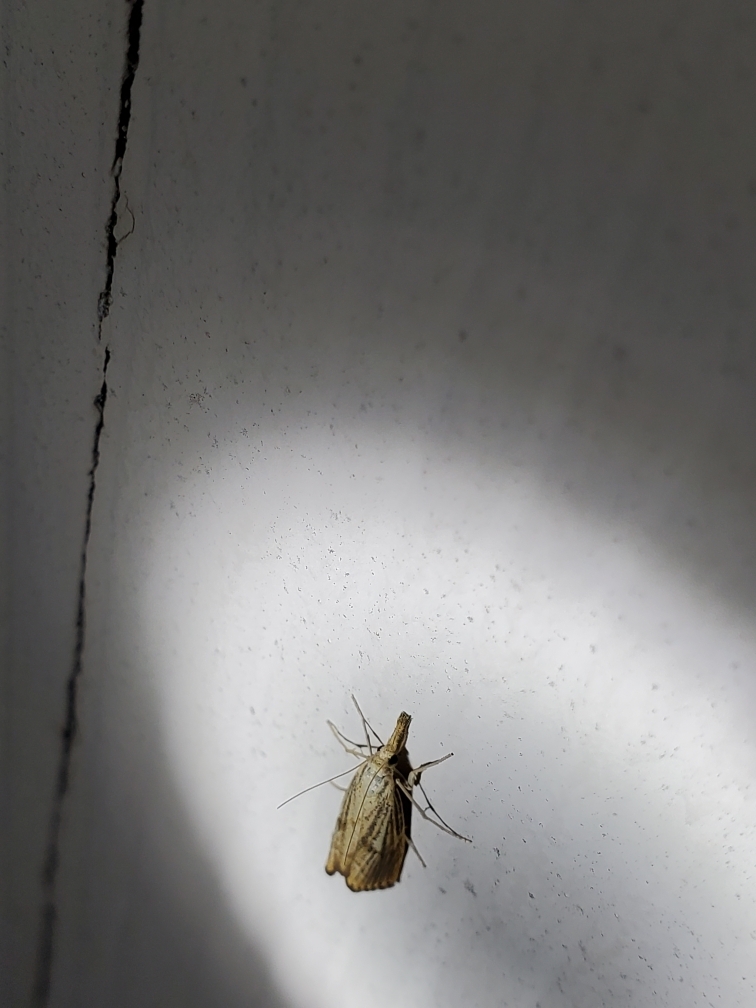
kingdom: Animalia
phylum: Arthropoda
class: Insecta
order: Lepidoptera
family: Crambidae
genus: Agriphila
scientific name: Agriphila ruricolellus
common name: Lesser vagabond sod webworm
